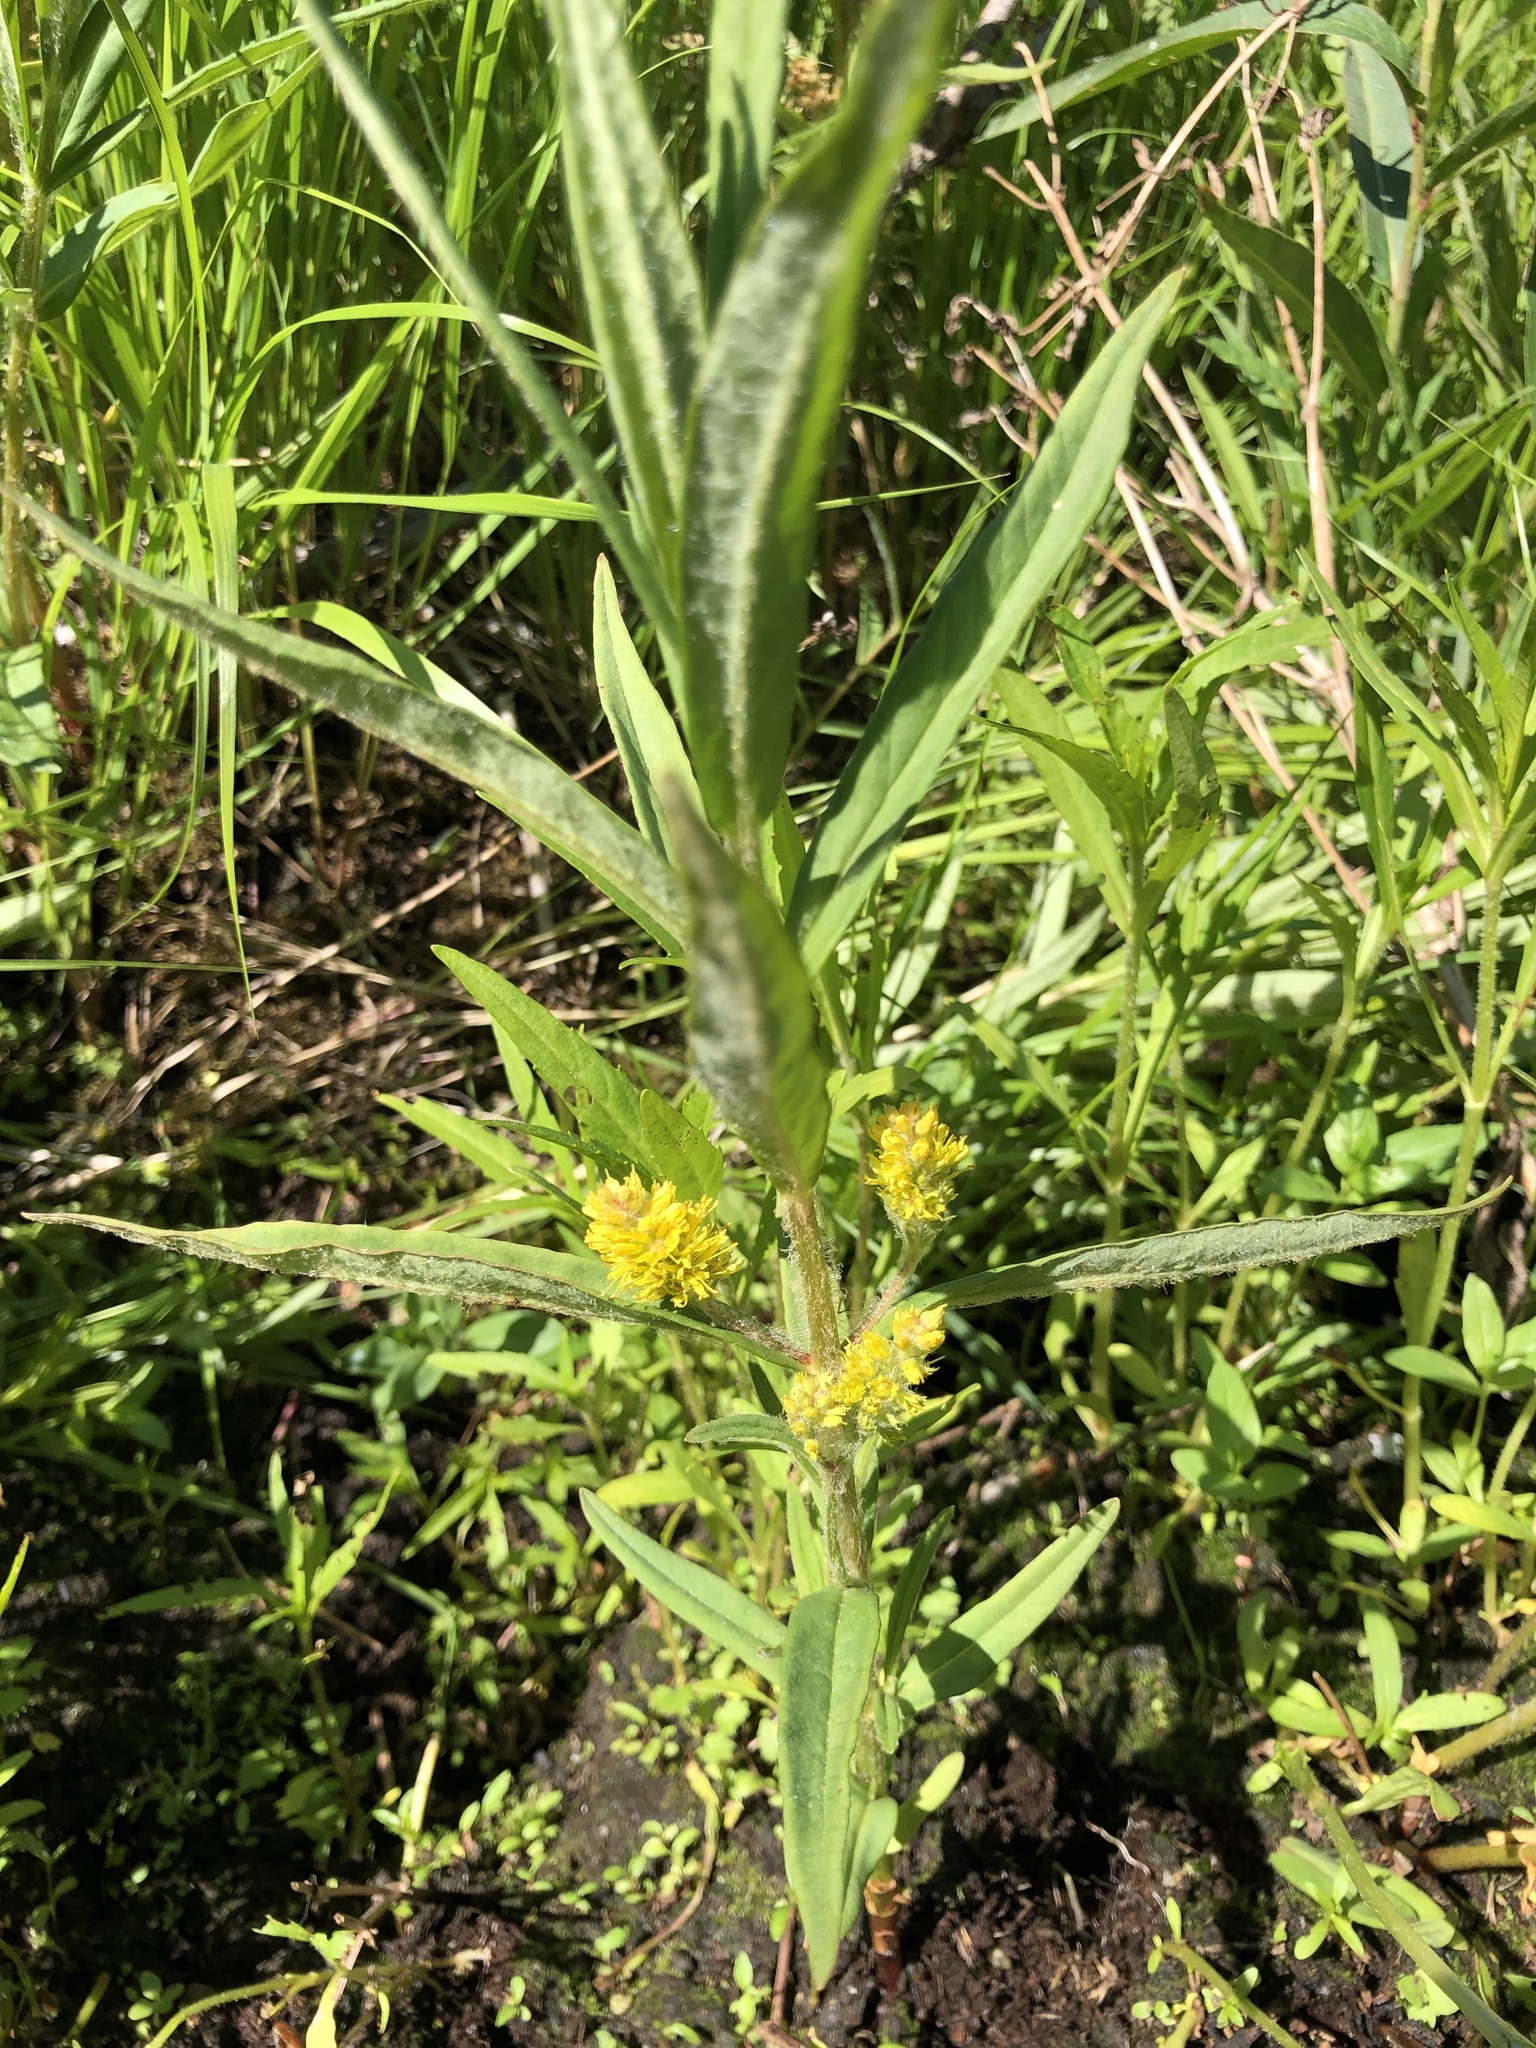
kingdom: Plantae
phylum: Tracheophyta
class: Magnoliopsida
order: Ericales
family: Primulaceae
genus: Lysimachia
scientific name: Lysimachia thyrsiflora
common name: Tufted loosestrife
